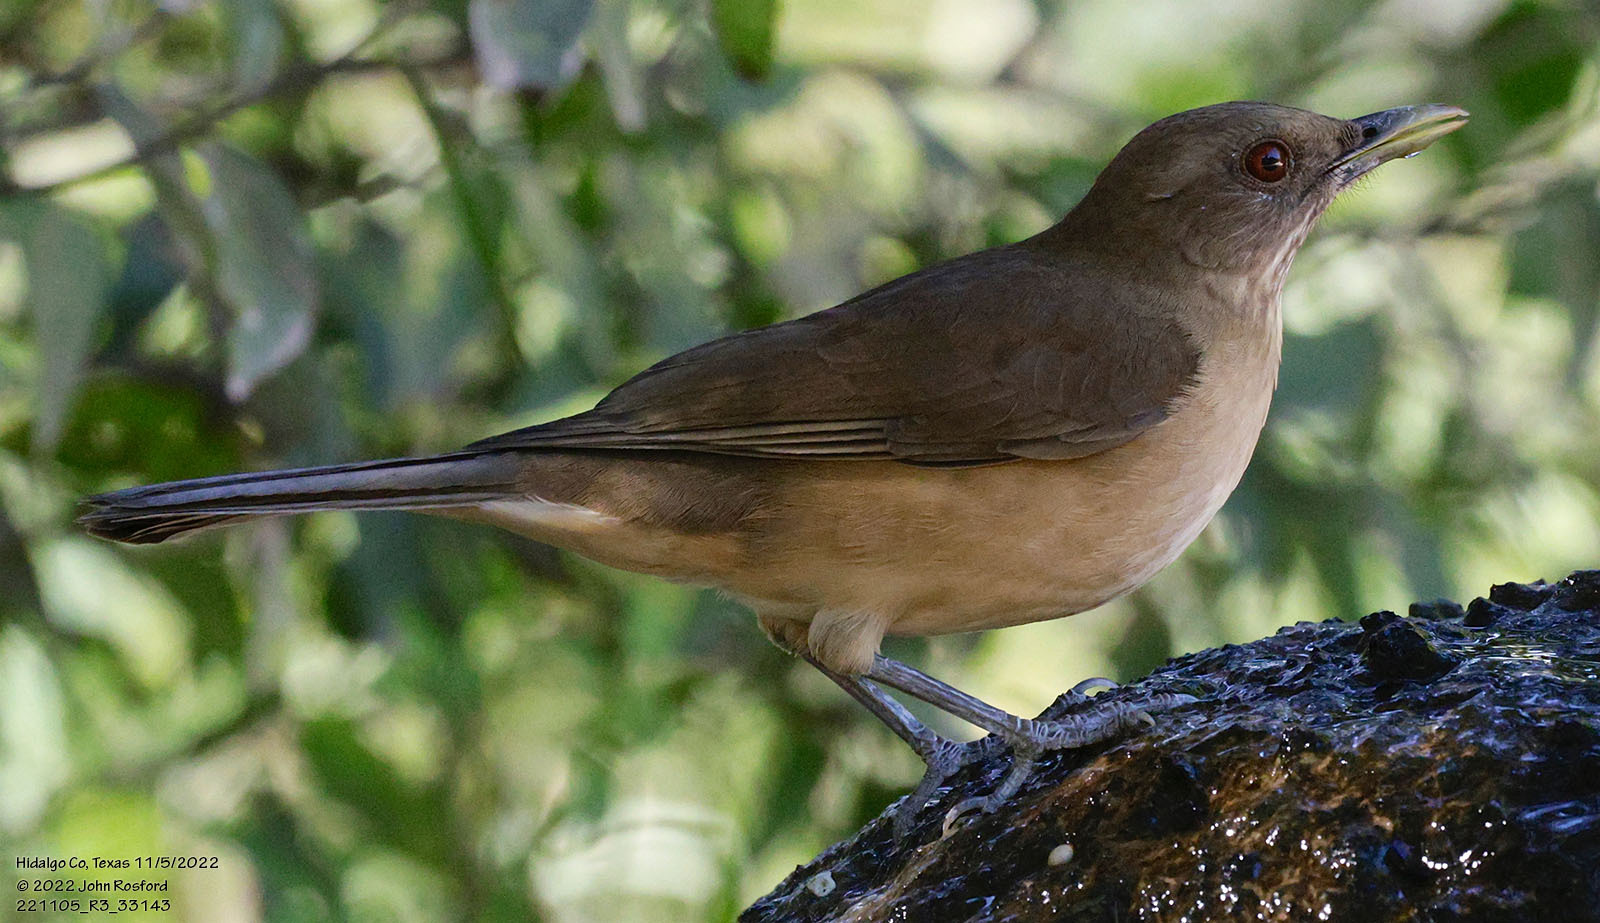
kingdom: Animalia
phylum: Chordata
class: Aves
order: Passeriformes
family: Turdidae
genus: Turdus
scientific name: Turdus grayi
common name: Clay-colored thrush
